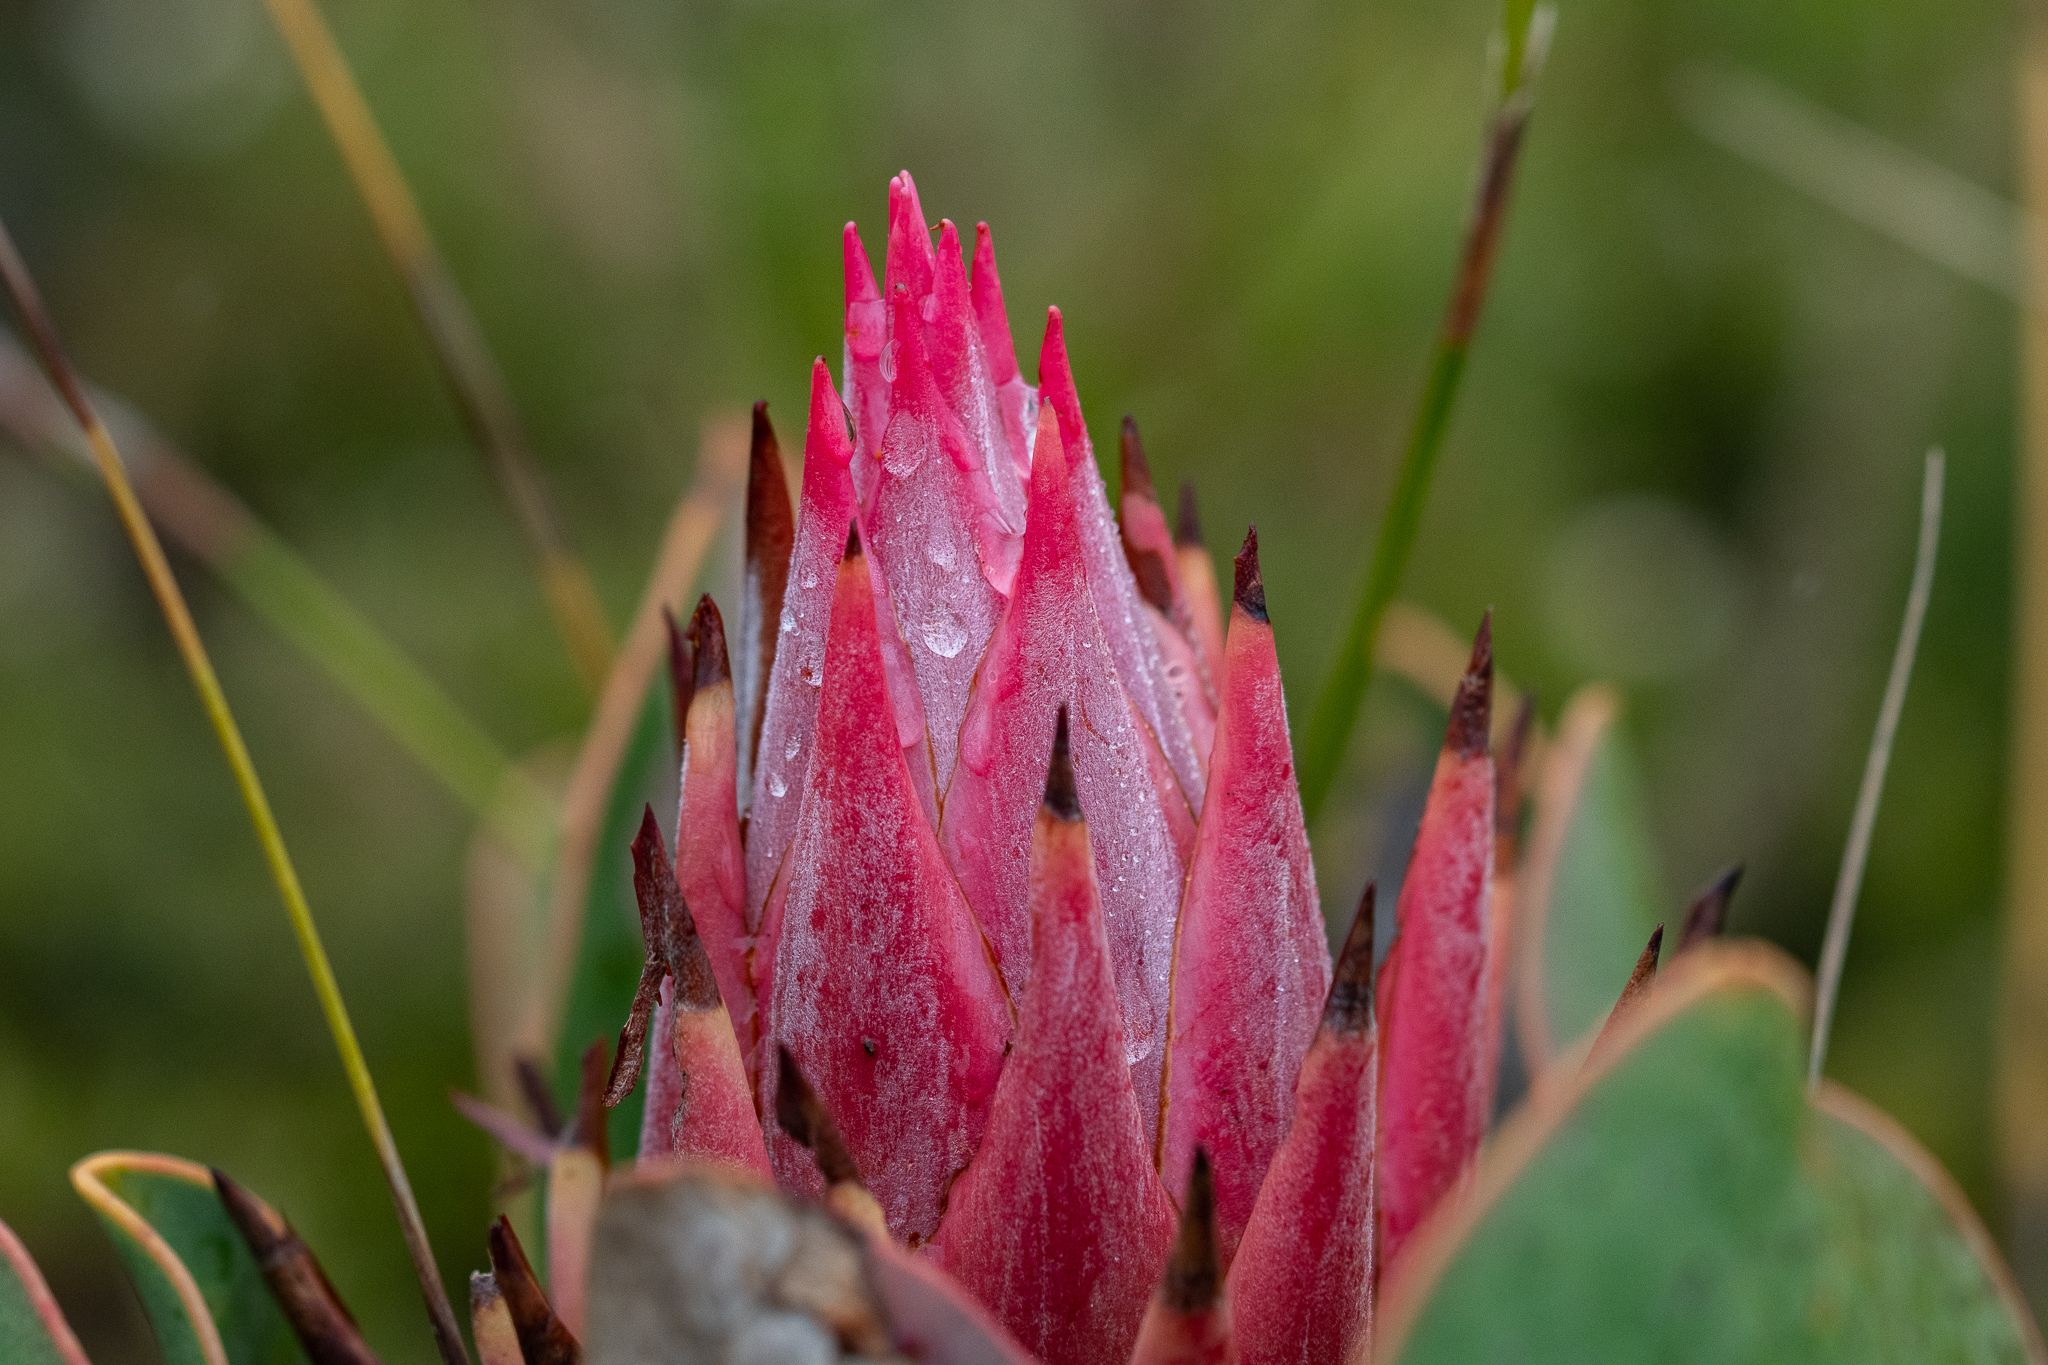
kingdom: Plantae
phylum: Tracheophyta
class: Magnoliopsida
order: Proteales
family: Proteaceae
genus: Protea
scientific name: Protea cynaroides
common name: King protea
